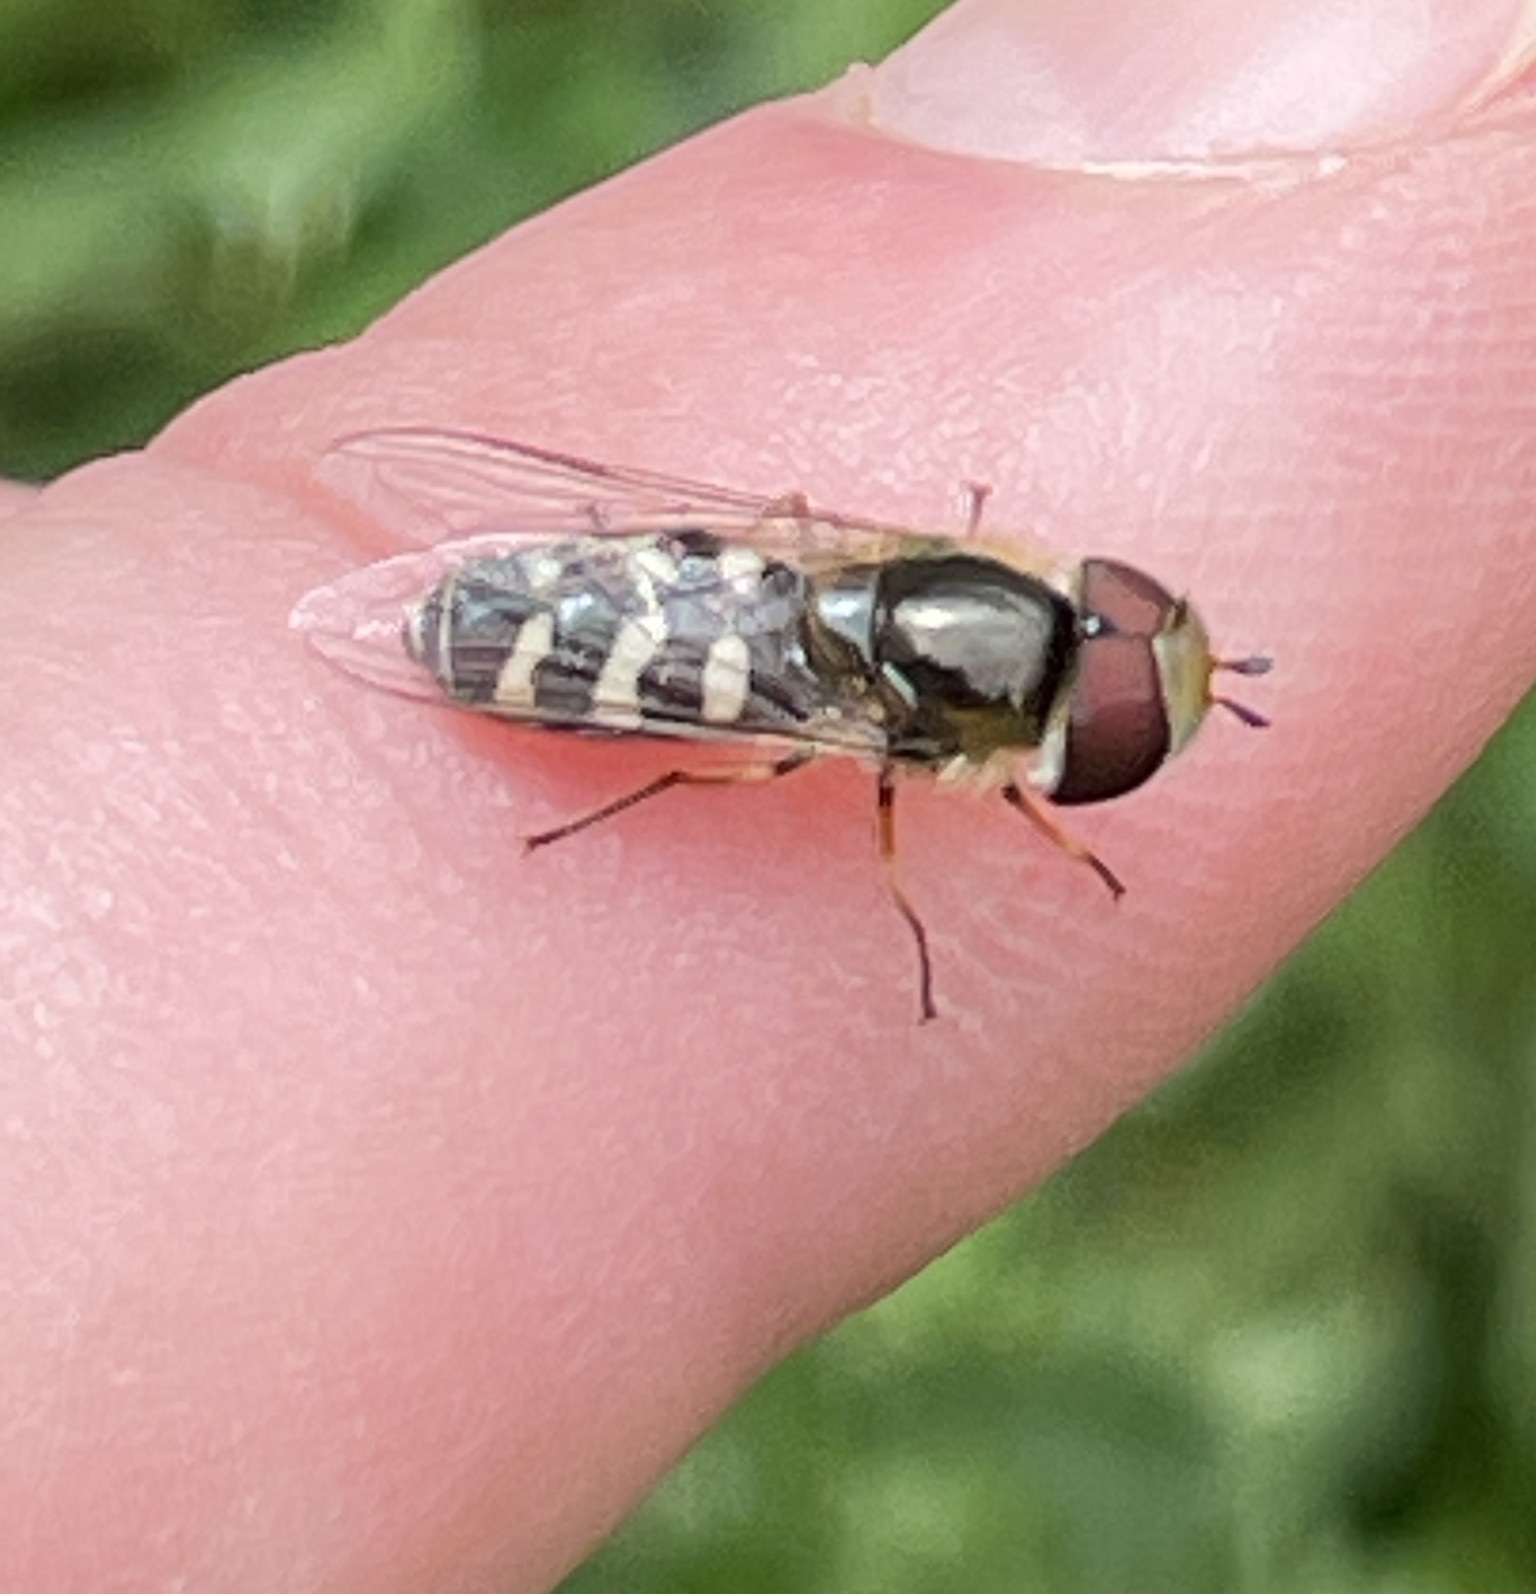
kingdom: Animalia
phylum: Arthropoda
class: Insecta
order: Diptera
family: Syrphidae
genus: Scaeva
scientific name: Scaeva pyrastri
